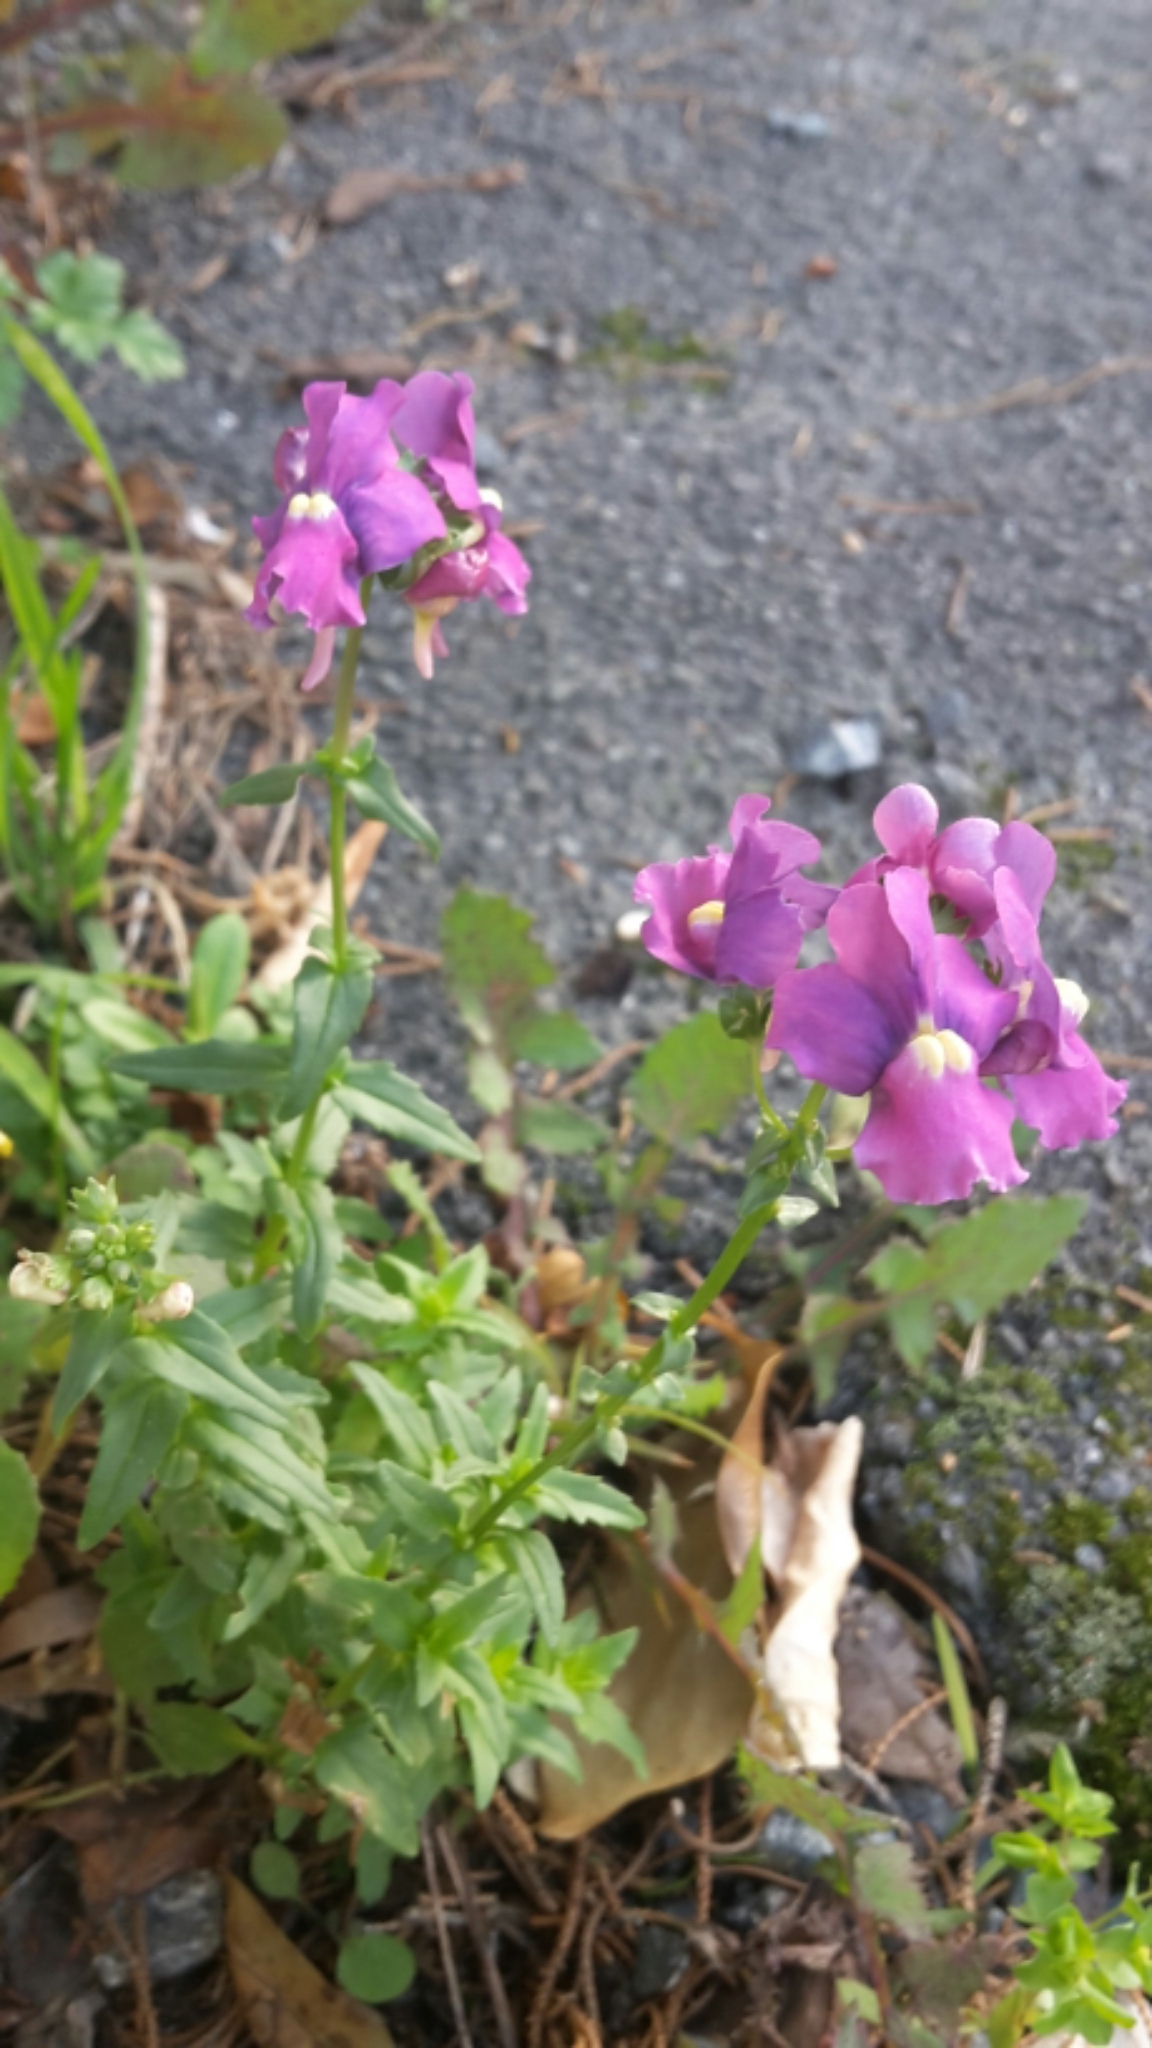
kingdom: Plantae
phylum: Tracheophyta
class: Magnoliopsida
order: Lamiales
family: Scrophulariaceae
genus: Nemesia
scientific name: Nemesia fruticans
